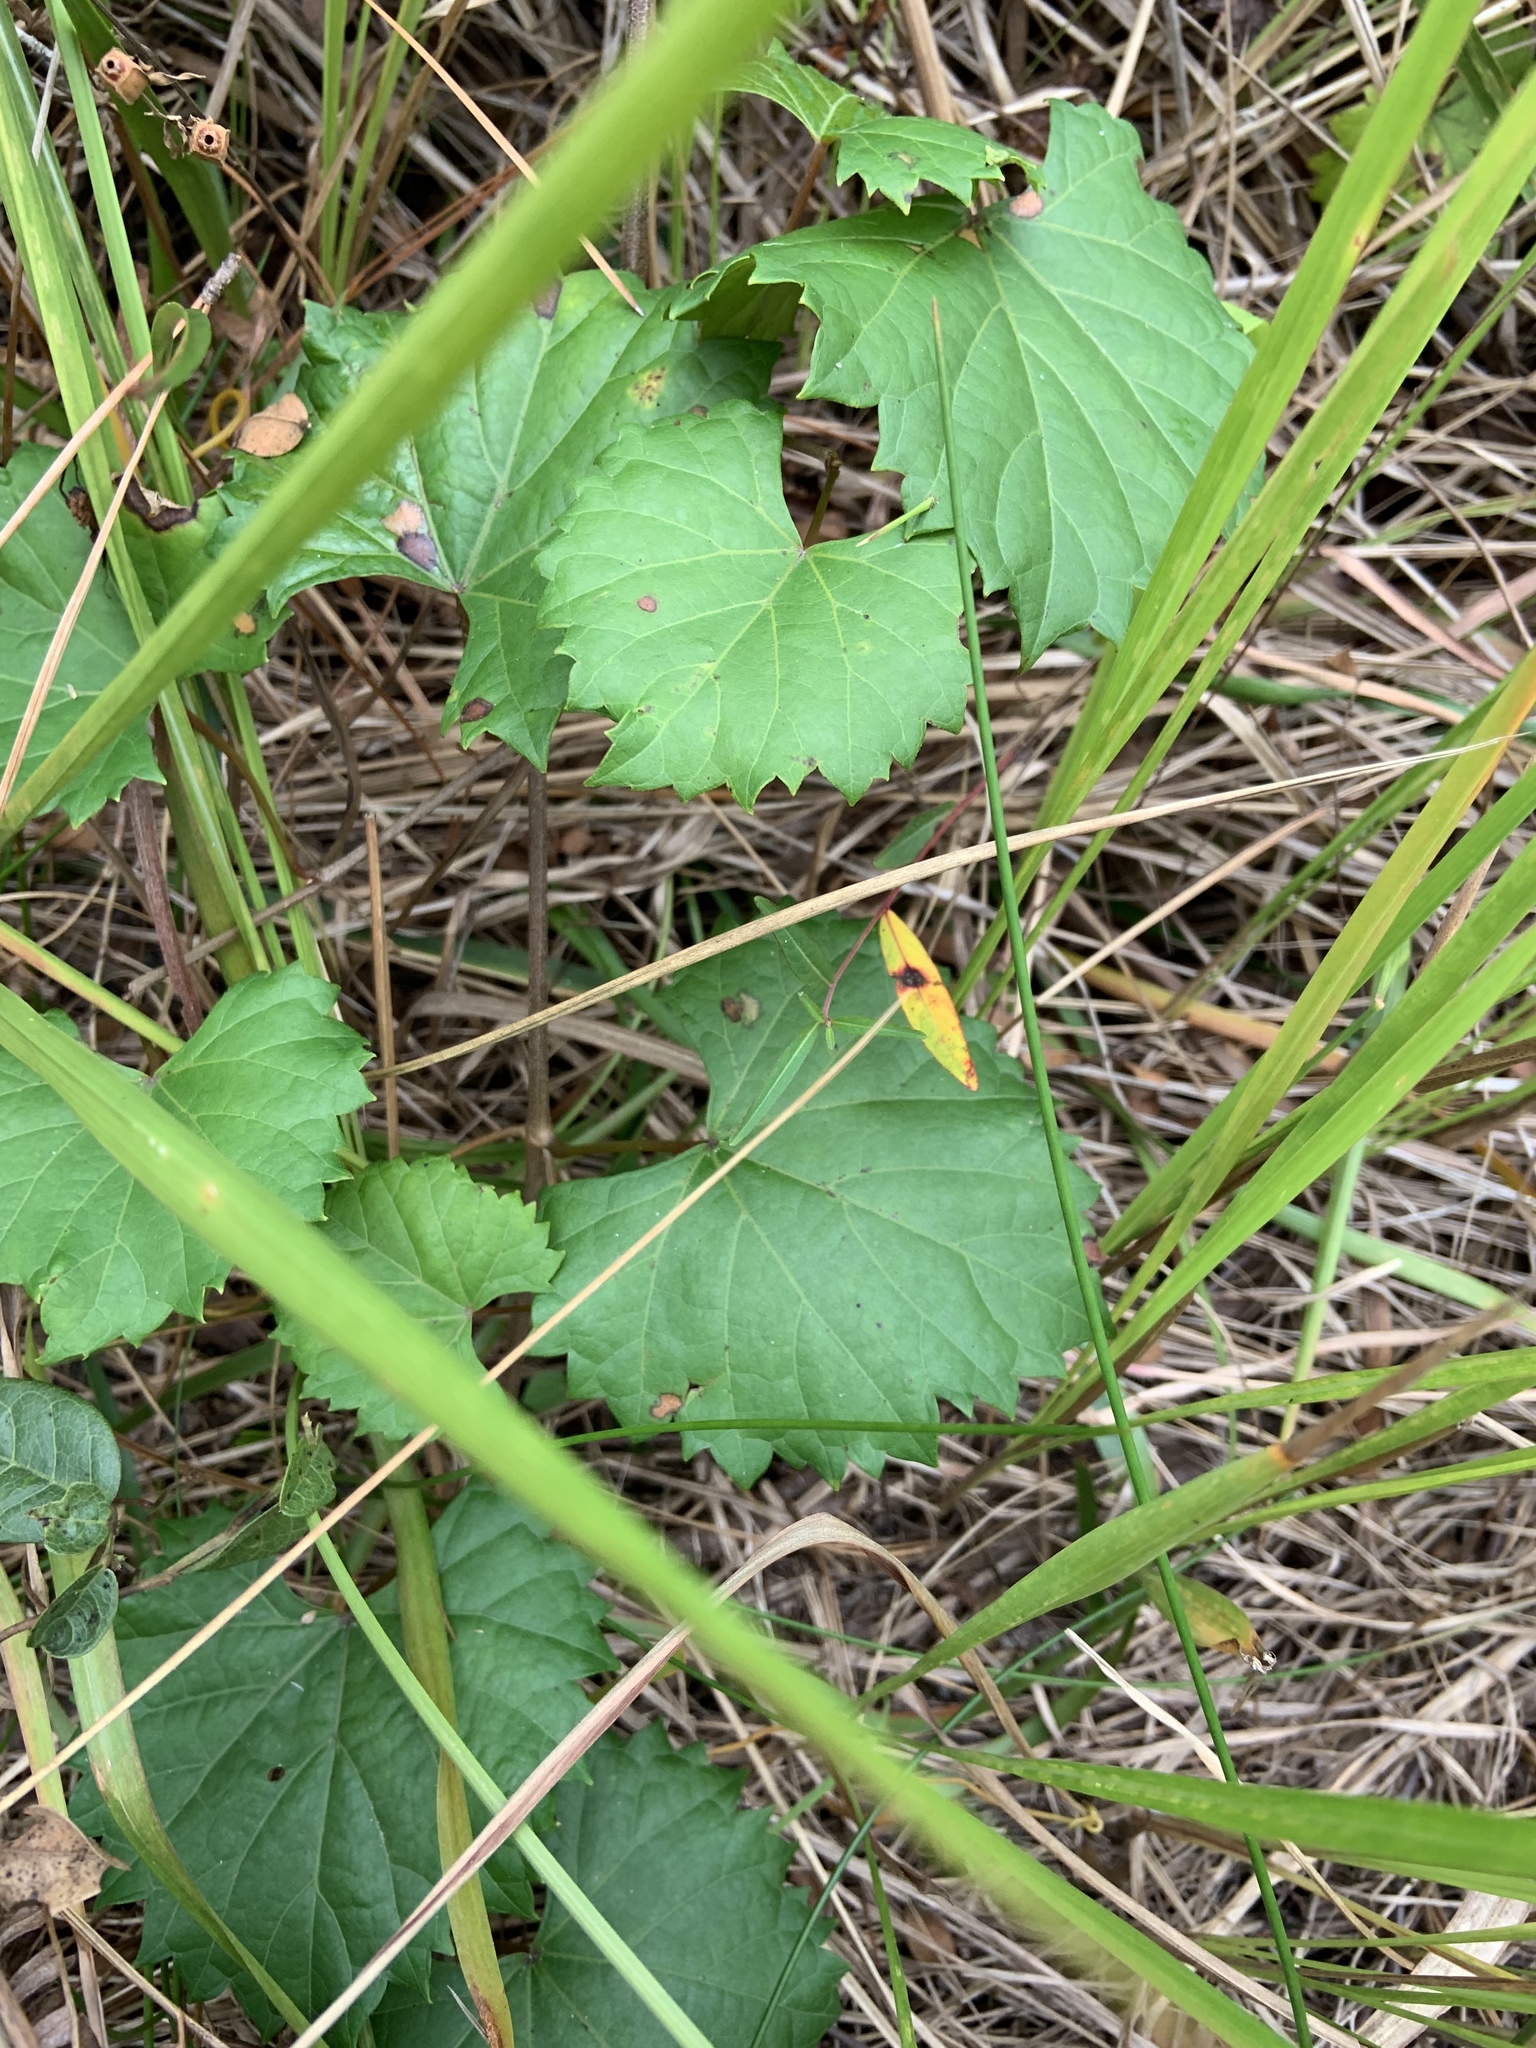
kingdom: Plantae
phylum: Tracheophyta
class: Magnoliopsida
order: Vitales
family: Vitaceae
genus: Vitis
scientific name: Vitis rotundifolia
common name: Muscadine grape
